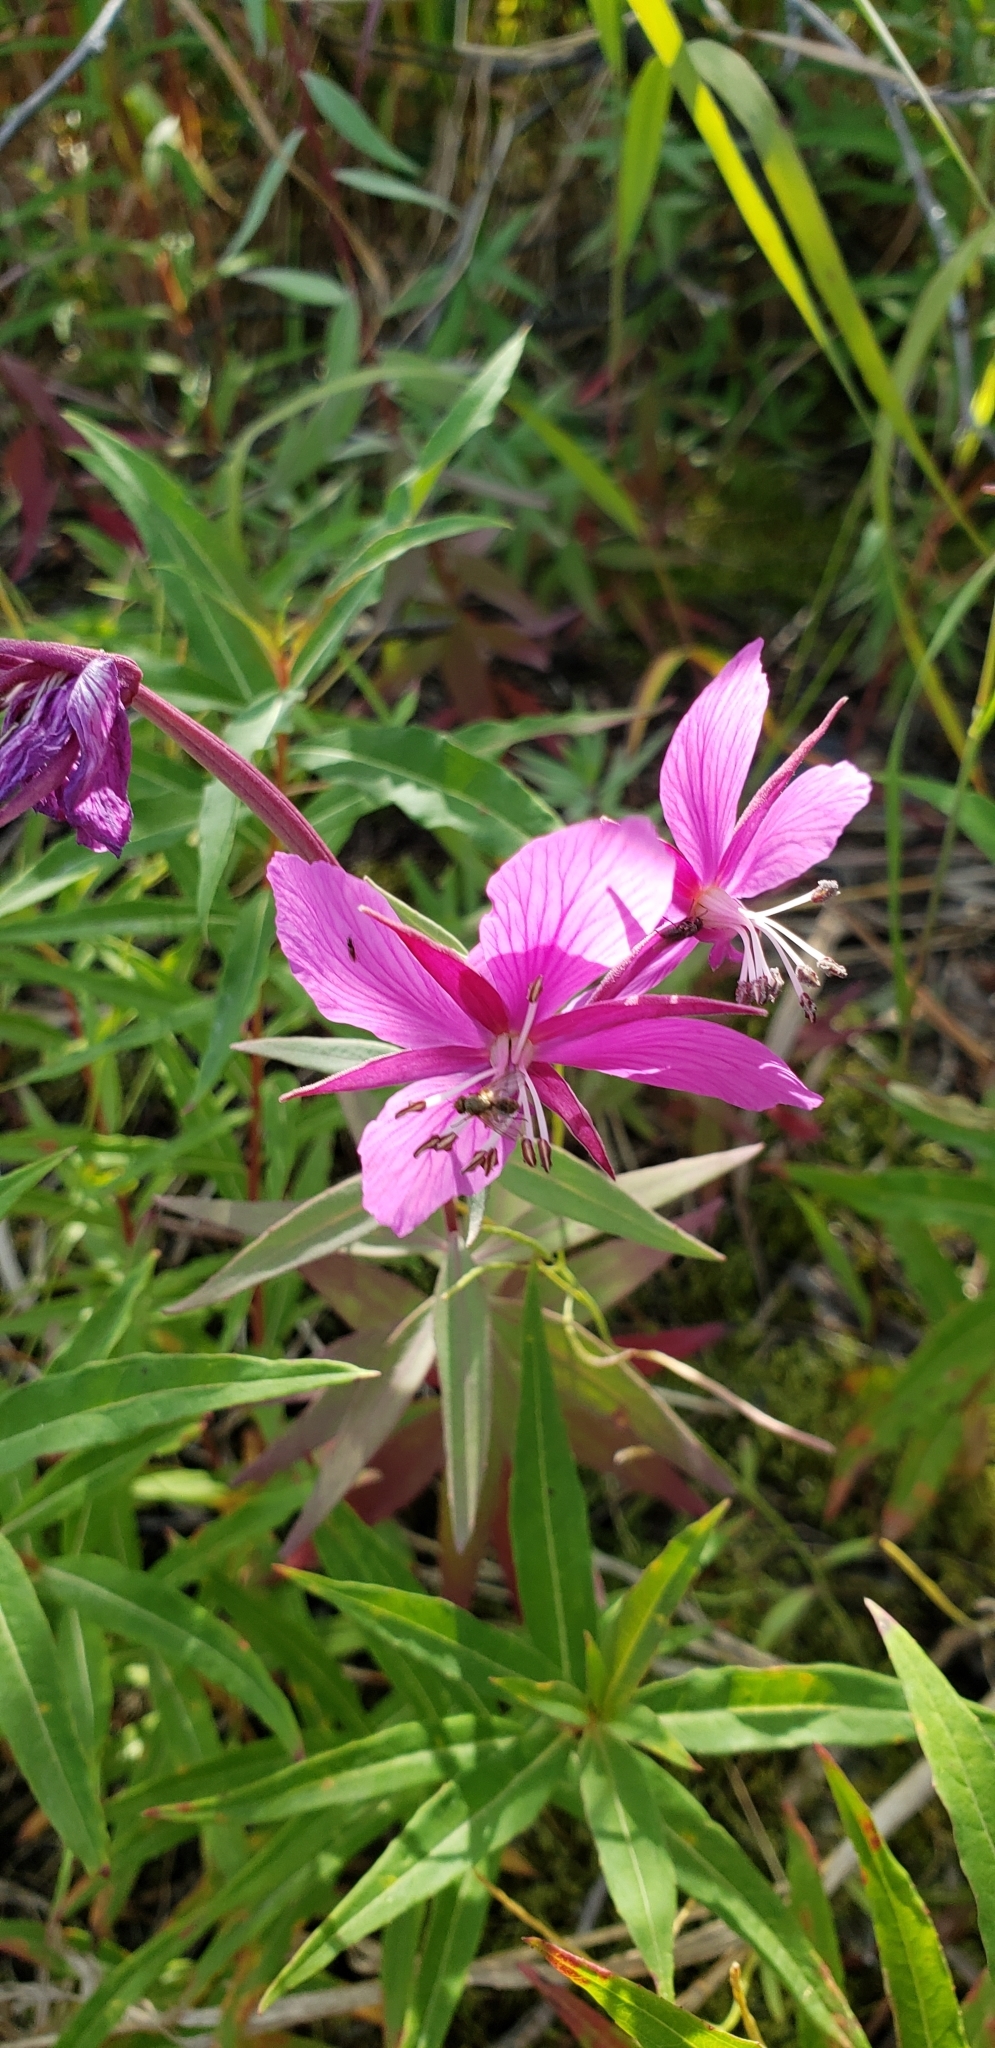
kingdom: Plantae
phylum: Tracheophyta
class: Magnoliopsida
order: Myrtales
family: Onagraceae
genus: Chamaenerion
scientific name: Chamaenerion latifolium
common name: Dwarf fireweed
